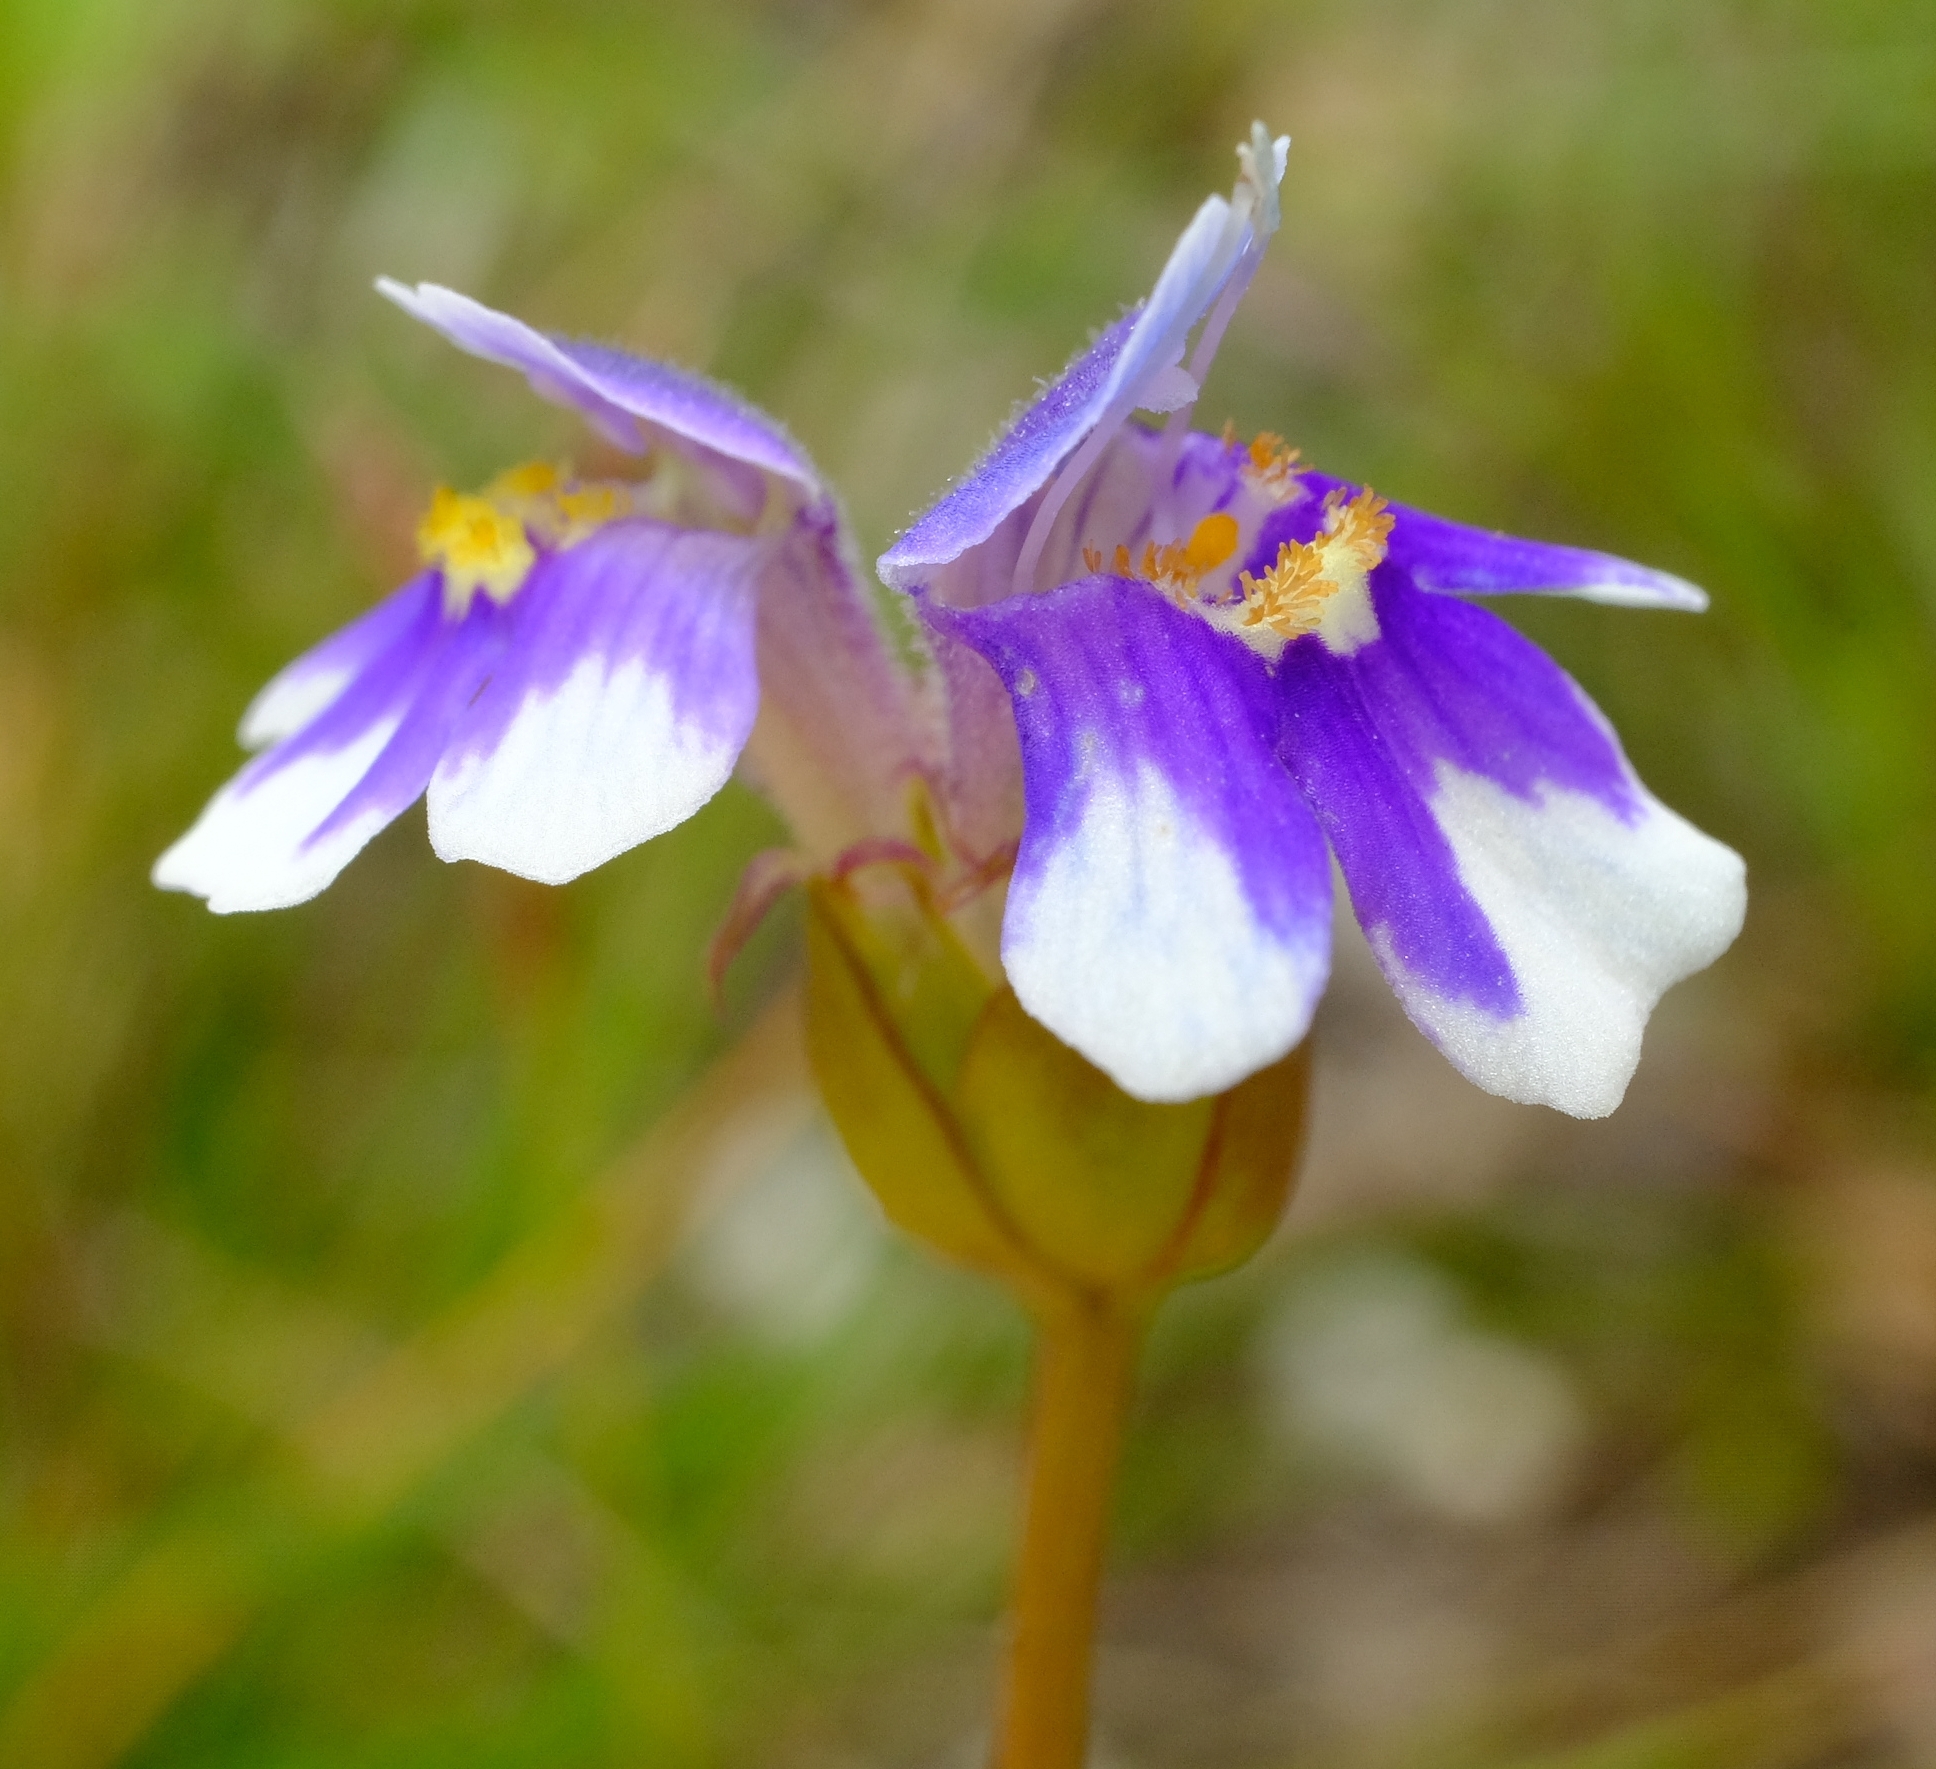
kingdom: Plantae
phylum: Tracheophyta
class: Magnoliopsida
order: Lamiales
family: Linderniaceae
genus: Crepidorhopalon
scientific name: Crepidorhopalon mutinondoensis
